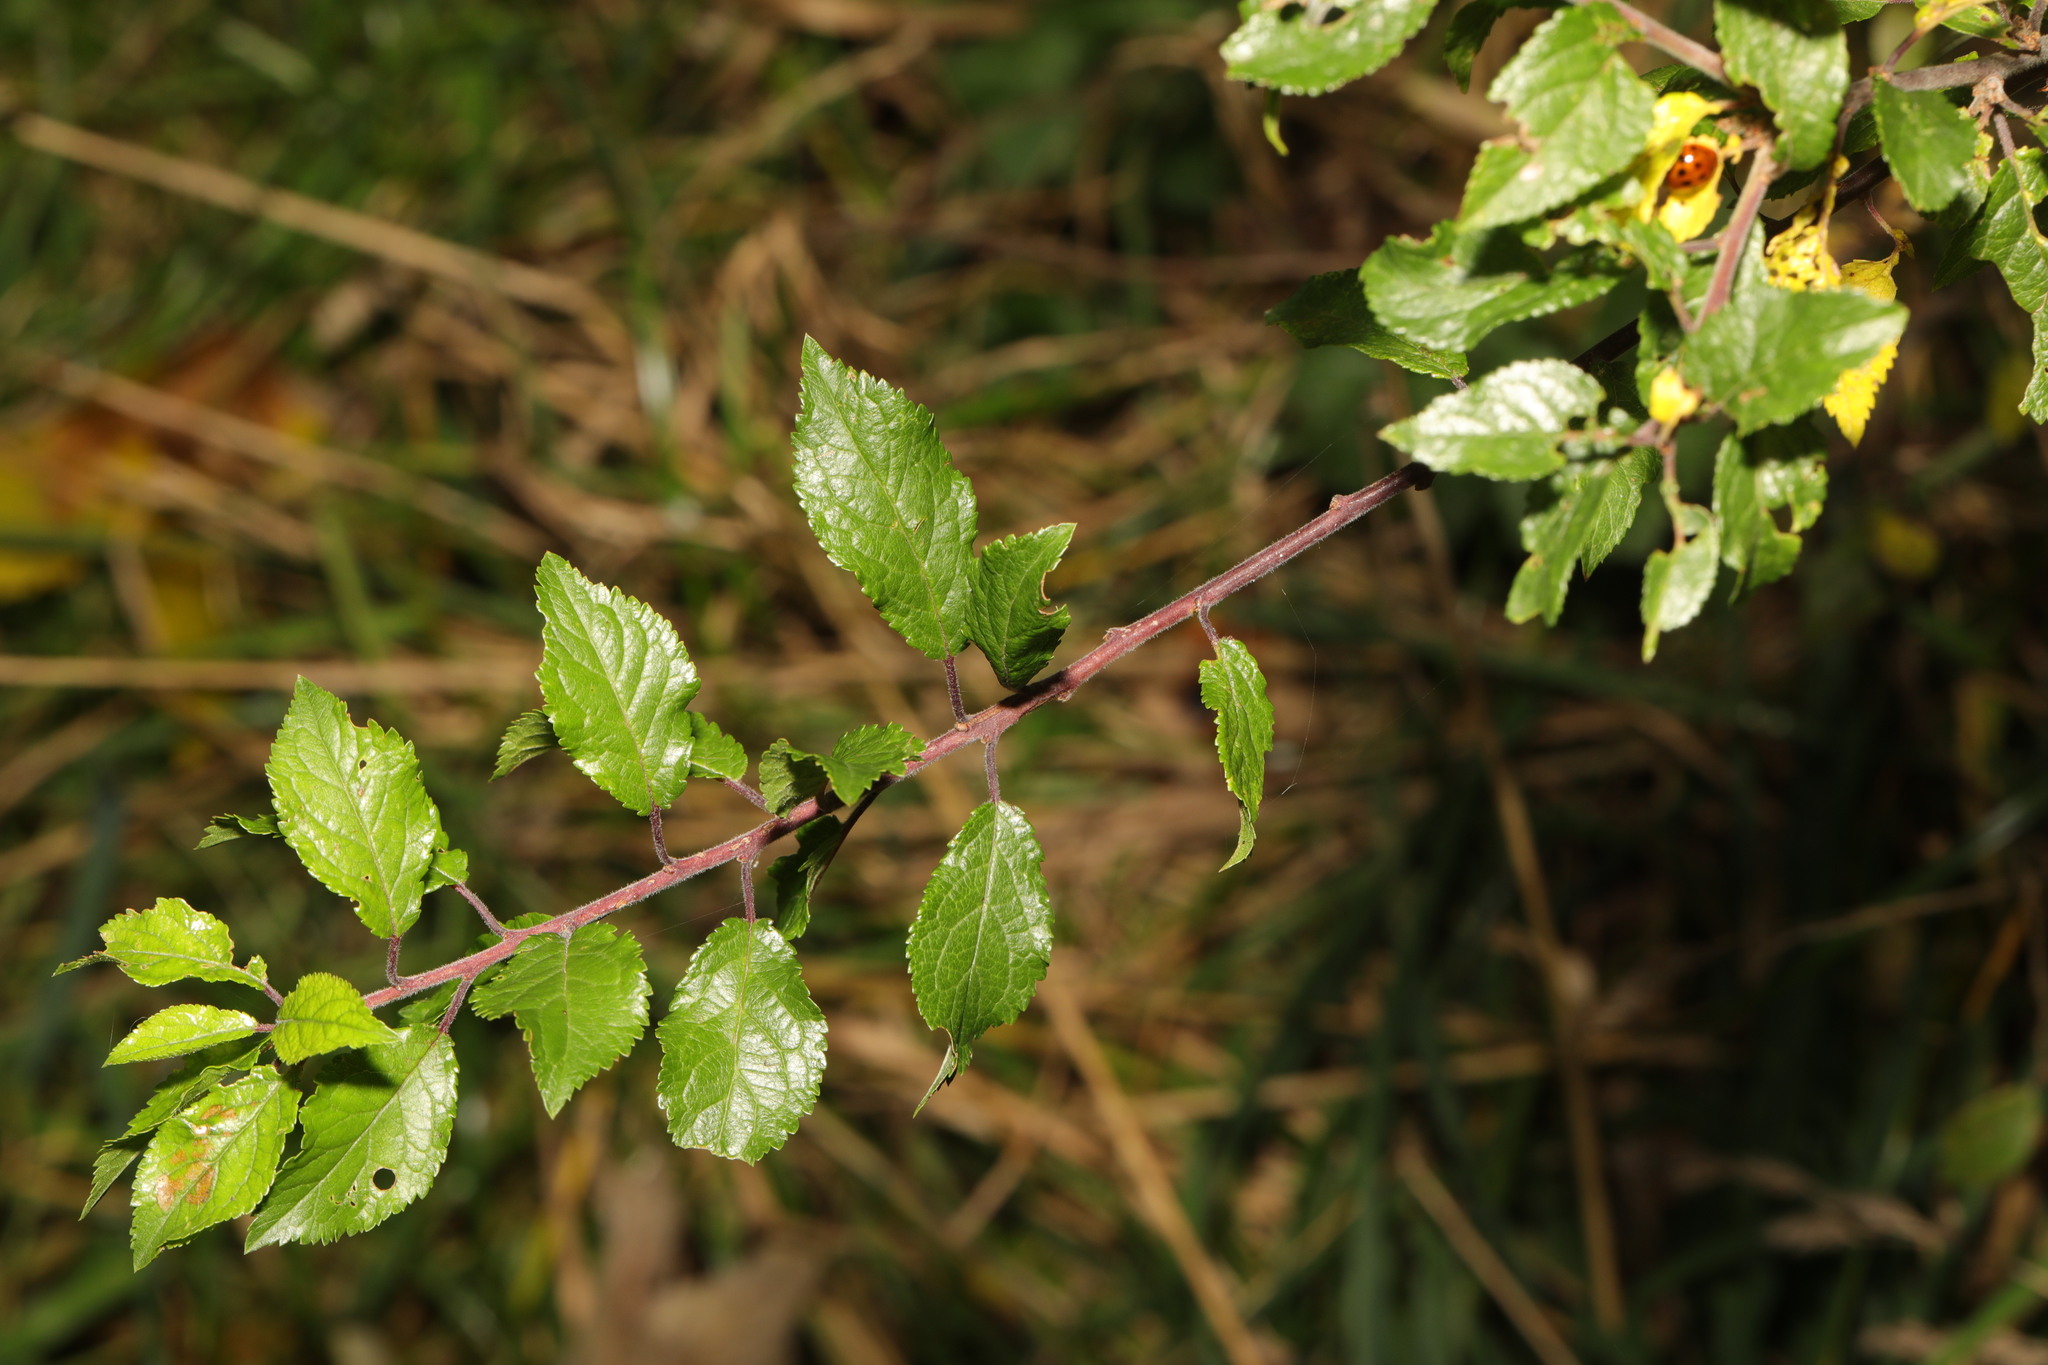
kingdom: Plantae
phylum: Tracheophyta
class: Magnoliopsida
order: Rosales
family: Rosaceae
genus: Prunus
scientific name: Prunus spinosa
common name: Blackthorn
